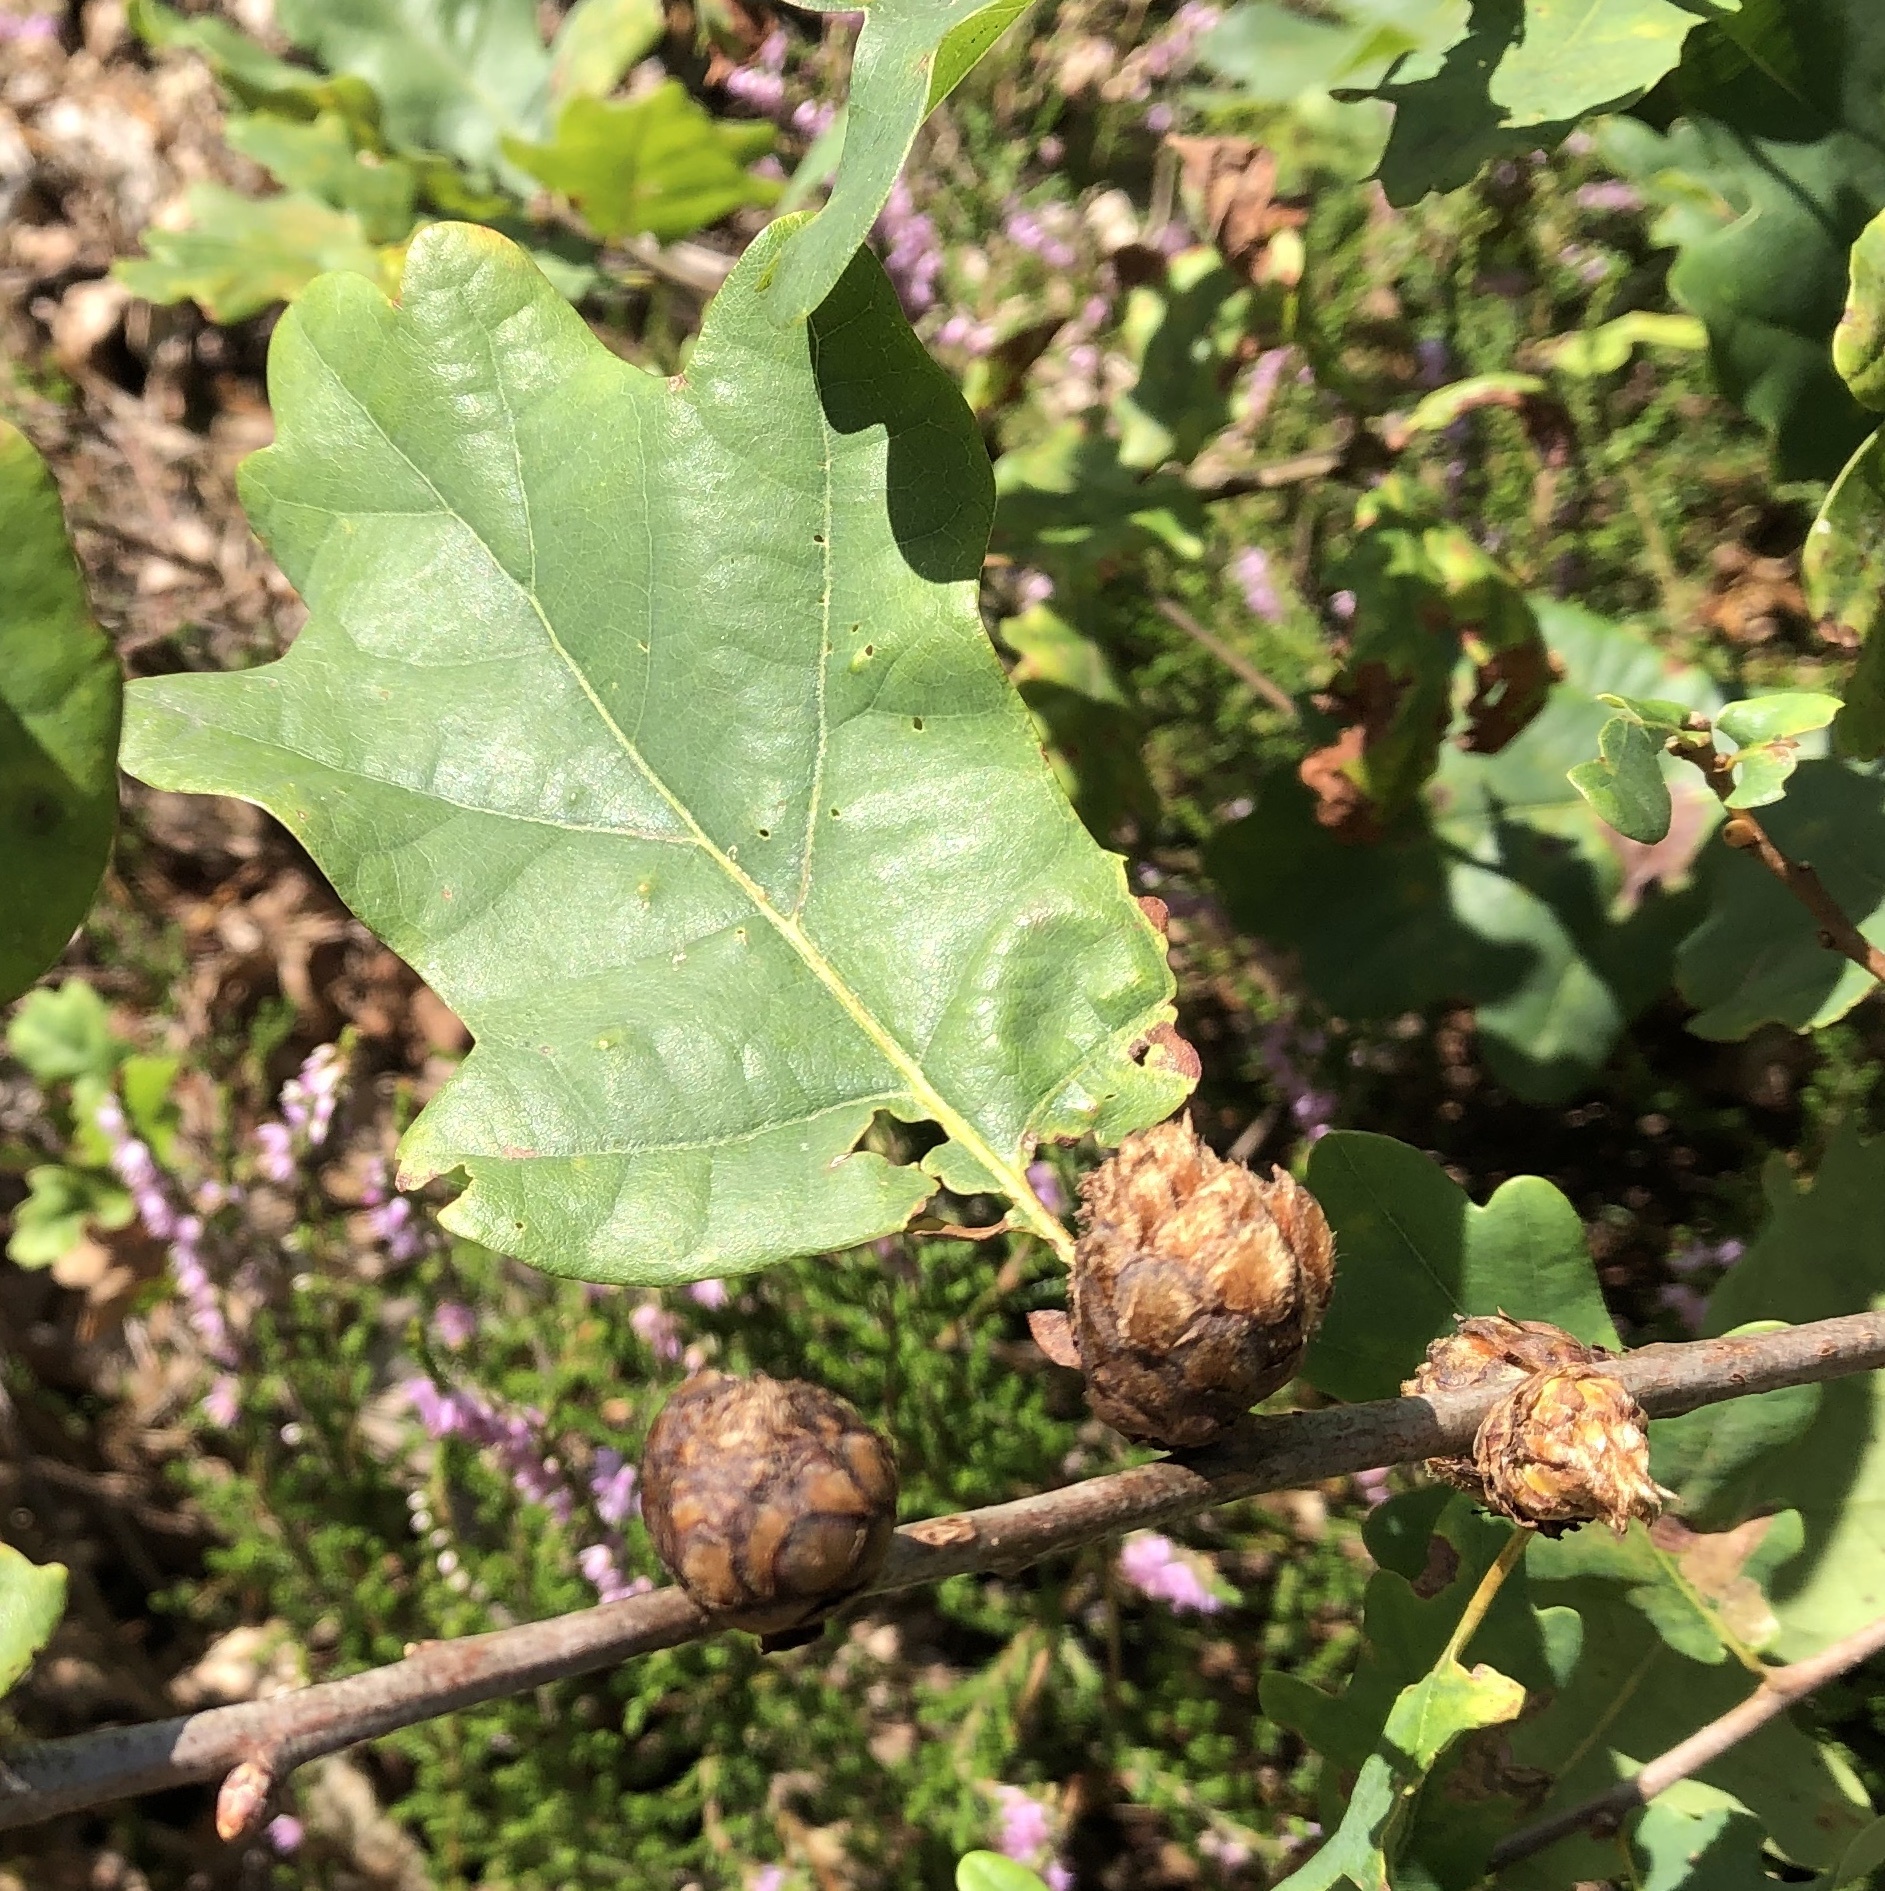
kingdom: Animalia
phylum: Arthropoda
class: Insecta
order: Hymenoptera
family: Cynipidae
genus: Andricus
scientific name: Andricus foecundatrix
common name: Artichoke gall
